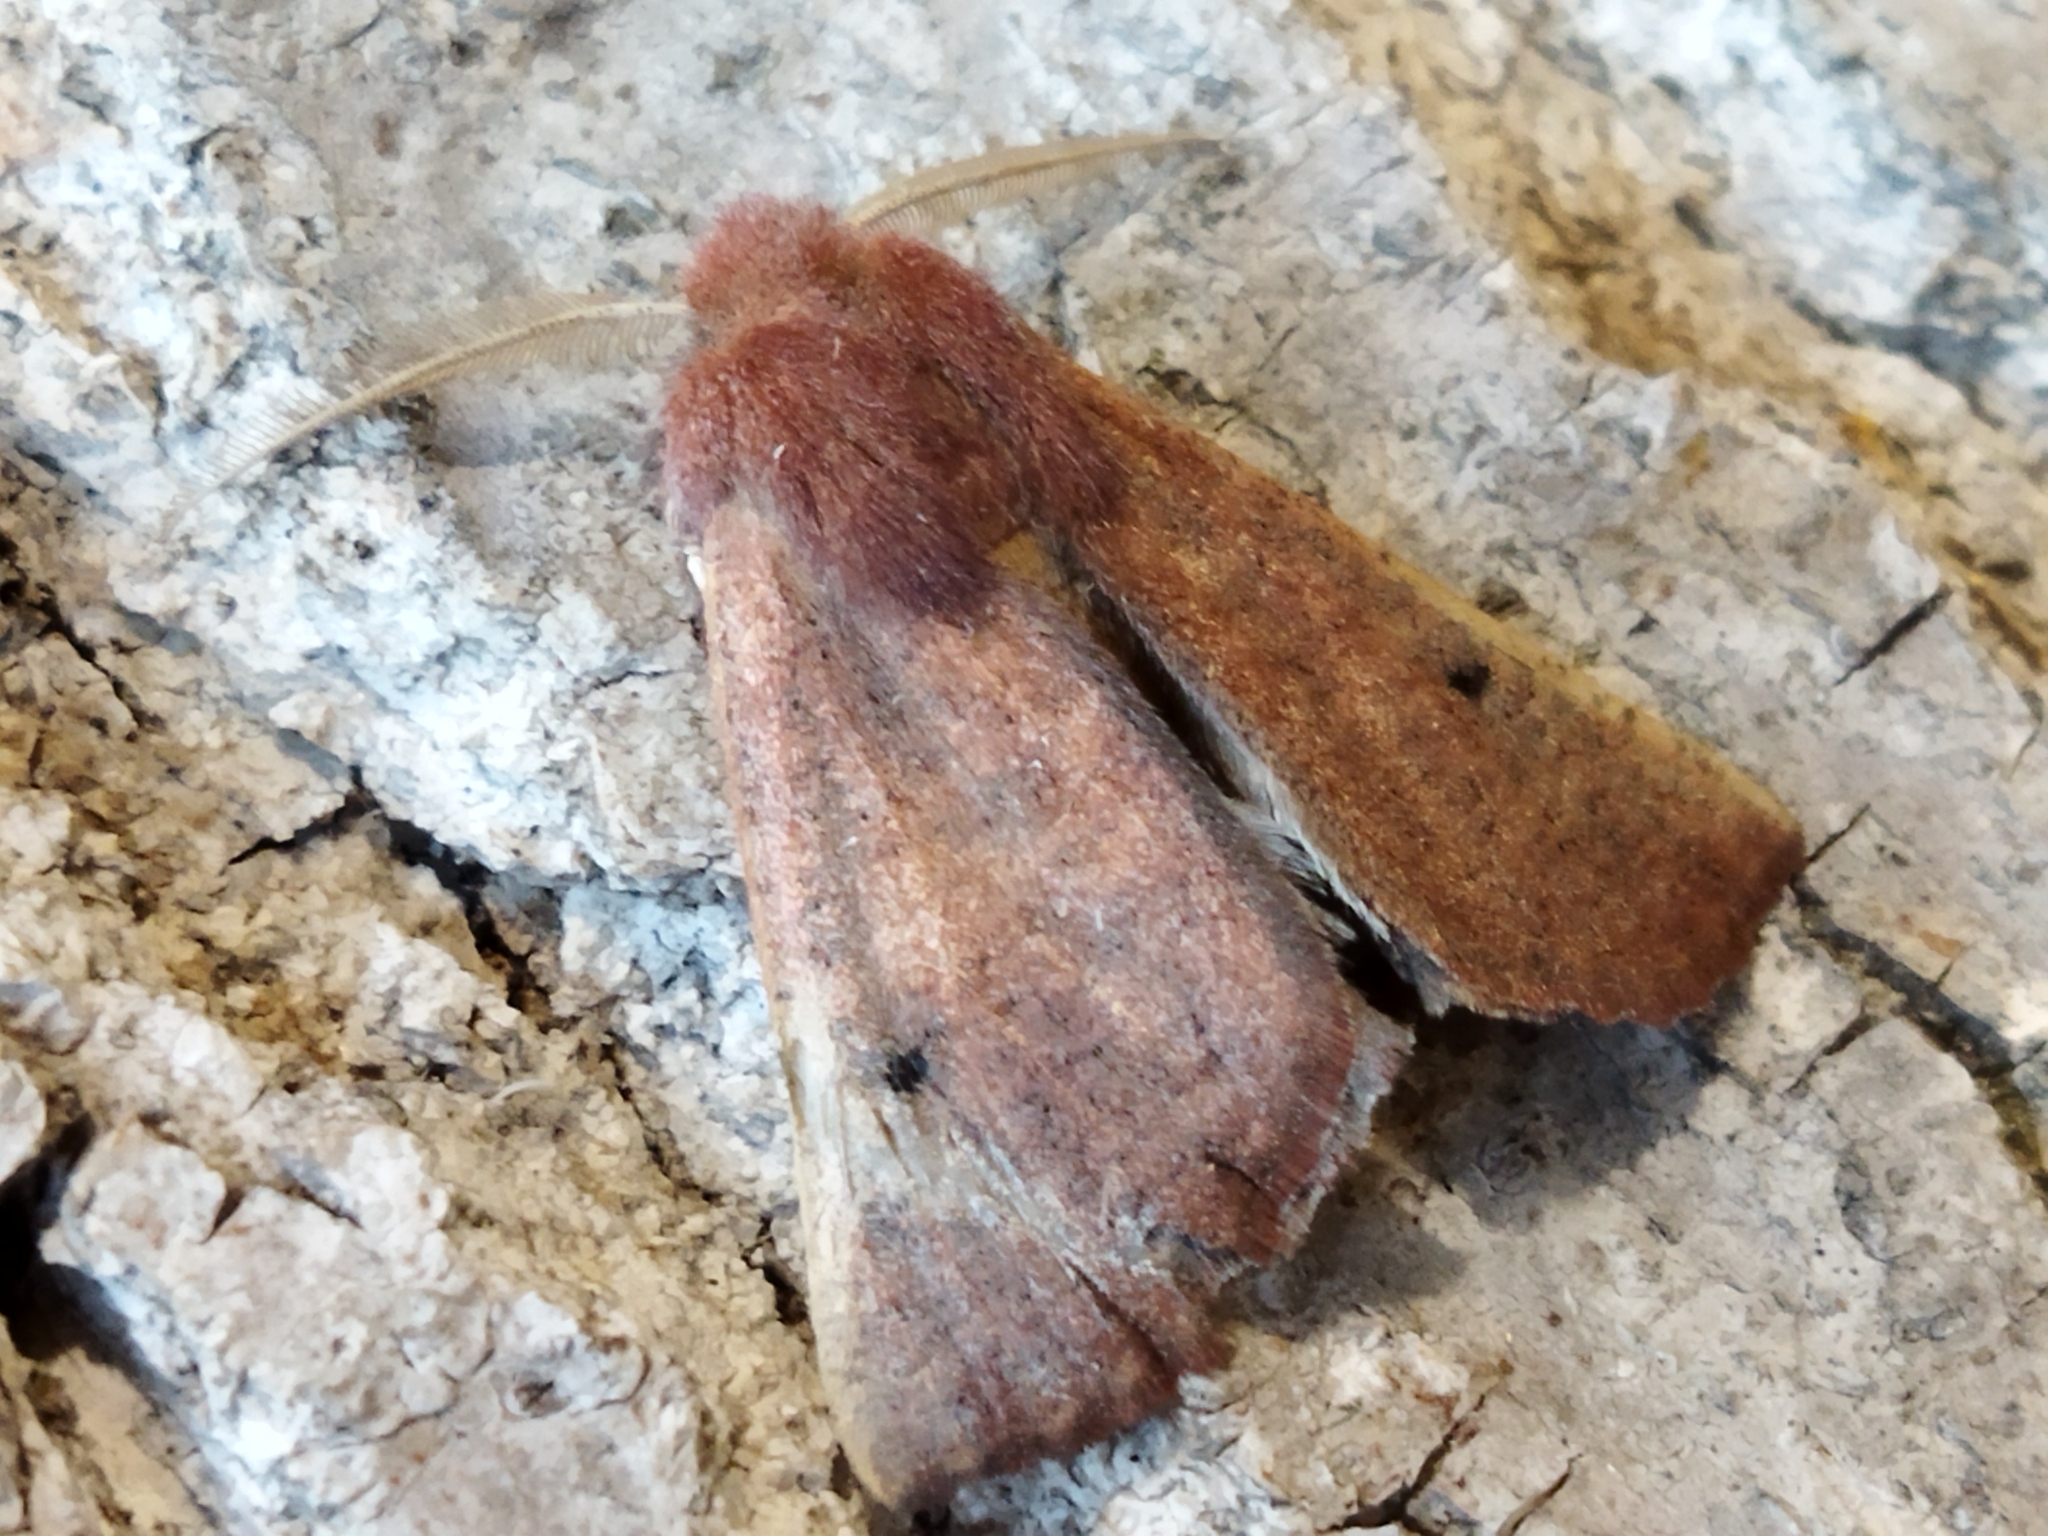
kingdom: Animalia
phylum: Arthropoda
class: Insecta
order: Lepidoptera
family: Geometridae
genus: Dasycorsa
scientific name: Dasycorsa modesta
